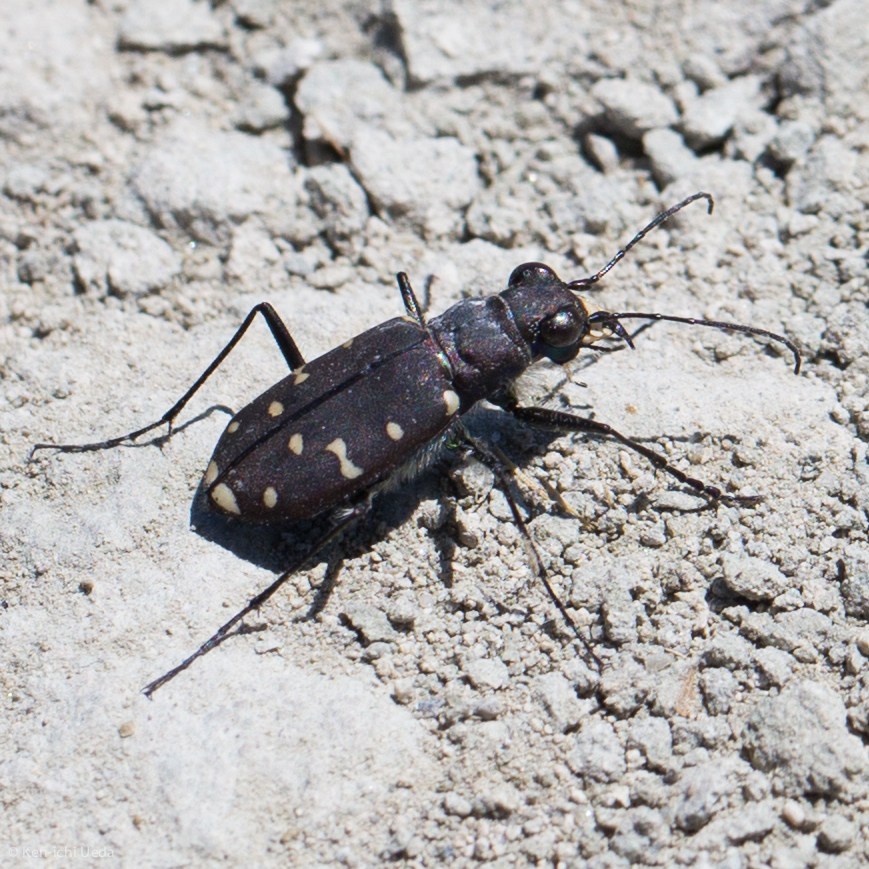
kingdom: Animalia
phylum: Arthropoda
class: Insecta
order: Coleoptera
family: Carabidae
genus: Cicindela
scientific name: Cicindela oregona
